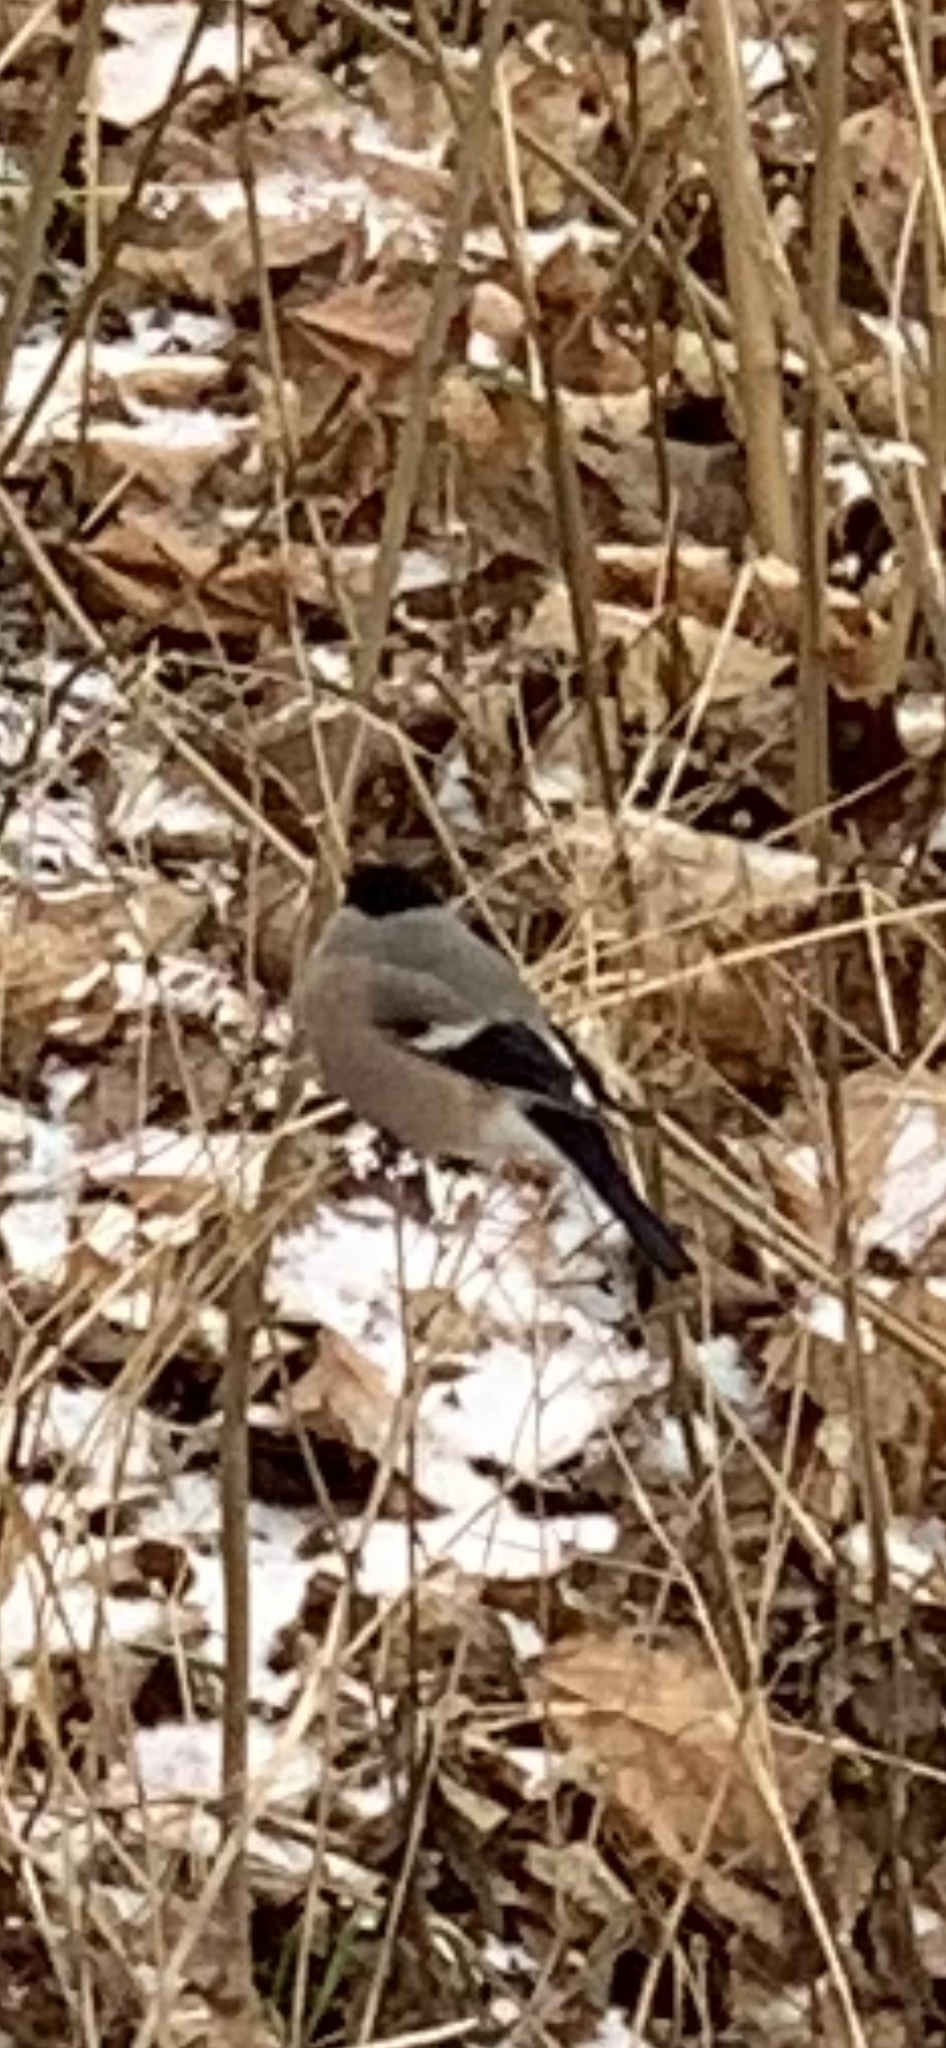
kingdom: Animalia
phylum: Chordata
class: Aves
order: Passeriformes
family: Fringillidae
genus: Pyrrhula
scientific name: Pyrrhula pyrrhula
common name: Eurasian bullfinch
